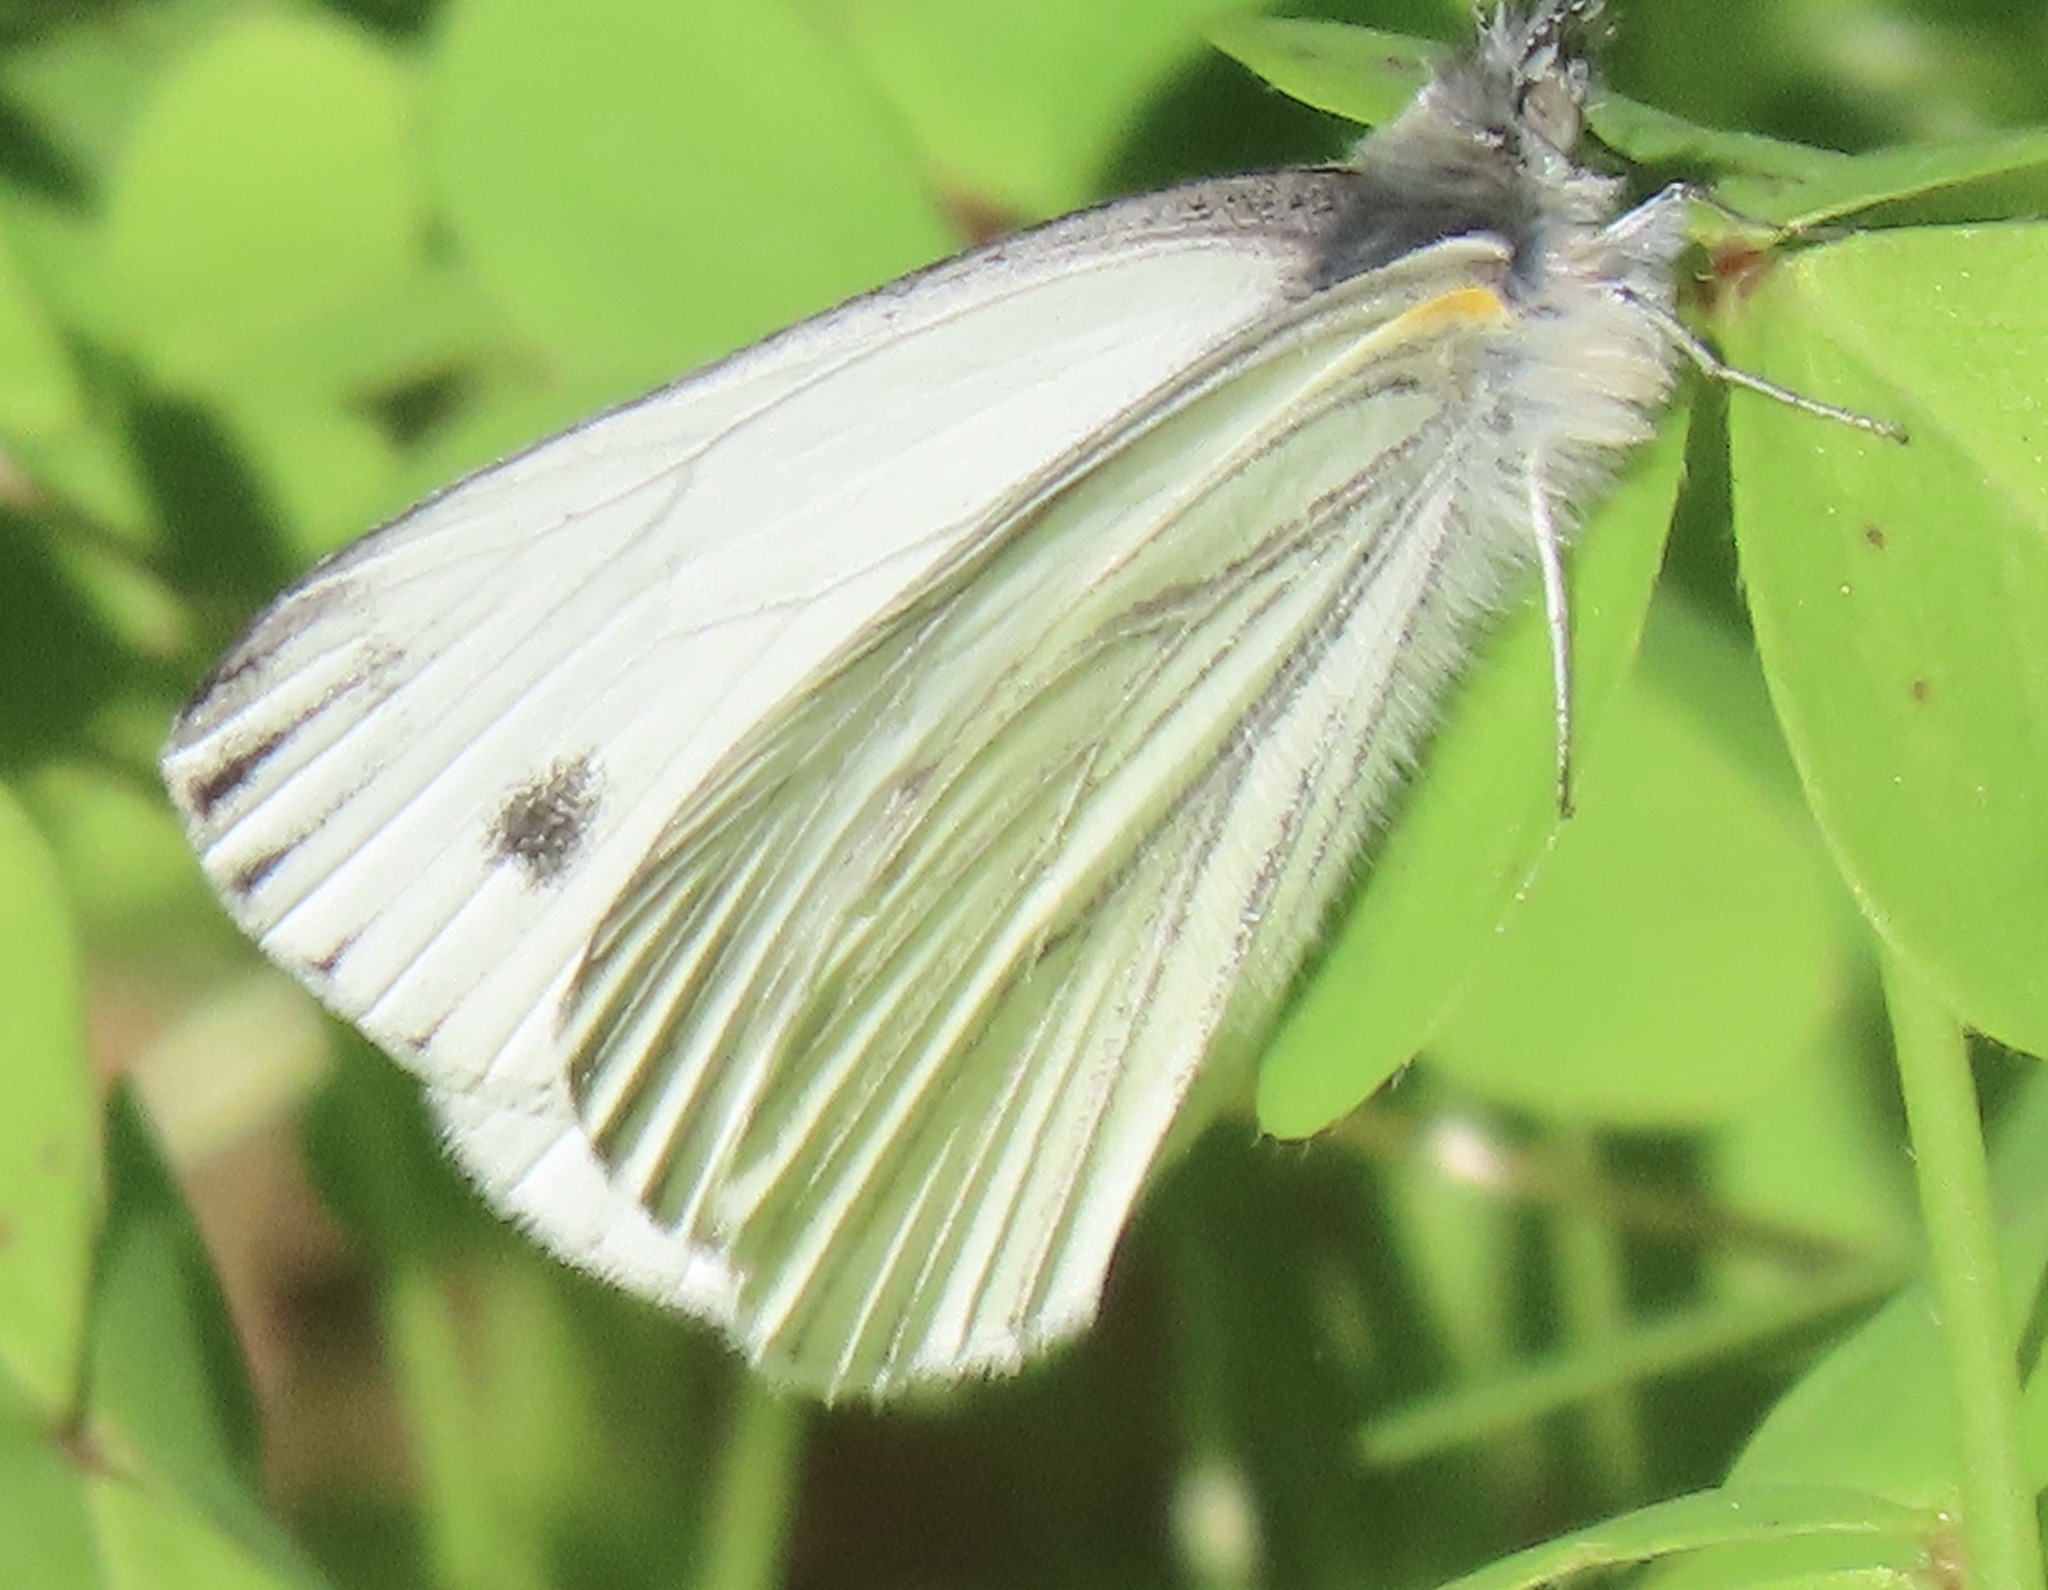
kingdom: Animalia
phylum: Arthropoda
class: Insecta
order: Lepidoptera
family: Pieridae
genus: Pieris
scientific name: Pieris marginalis
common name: Margined white
